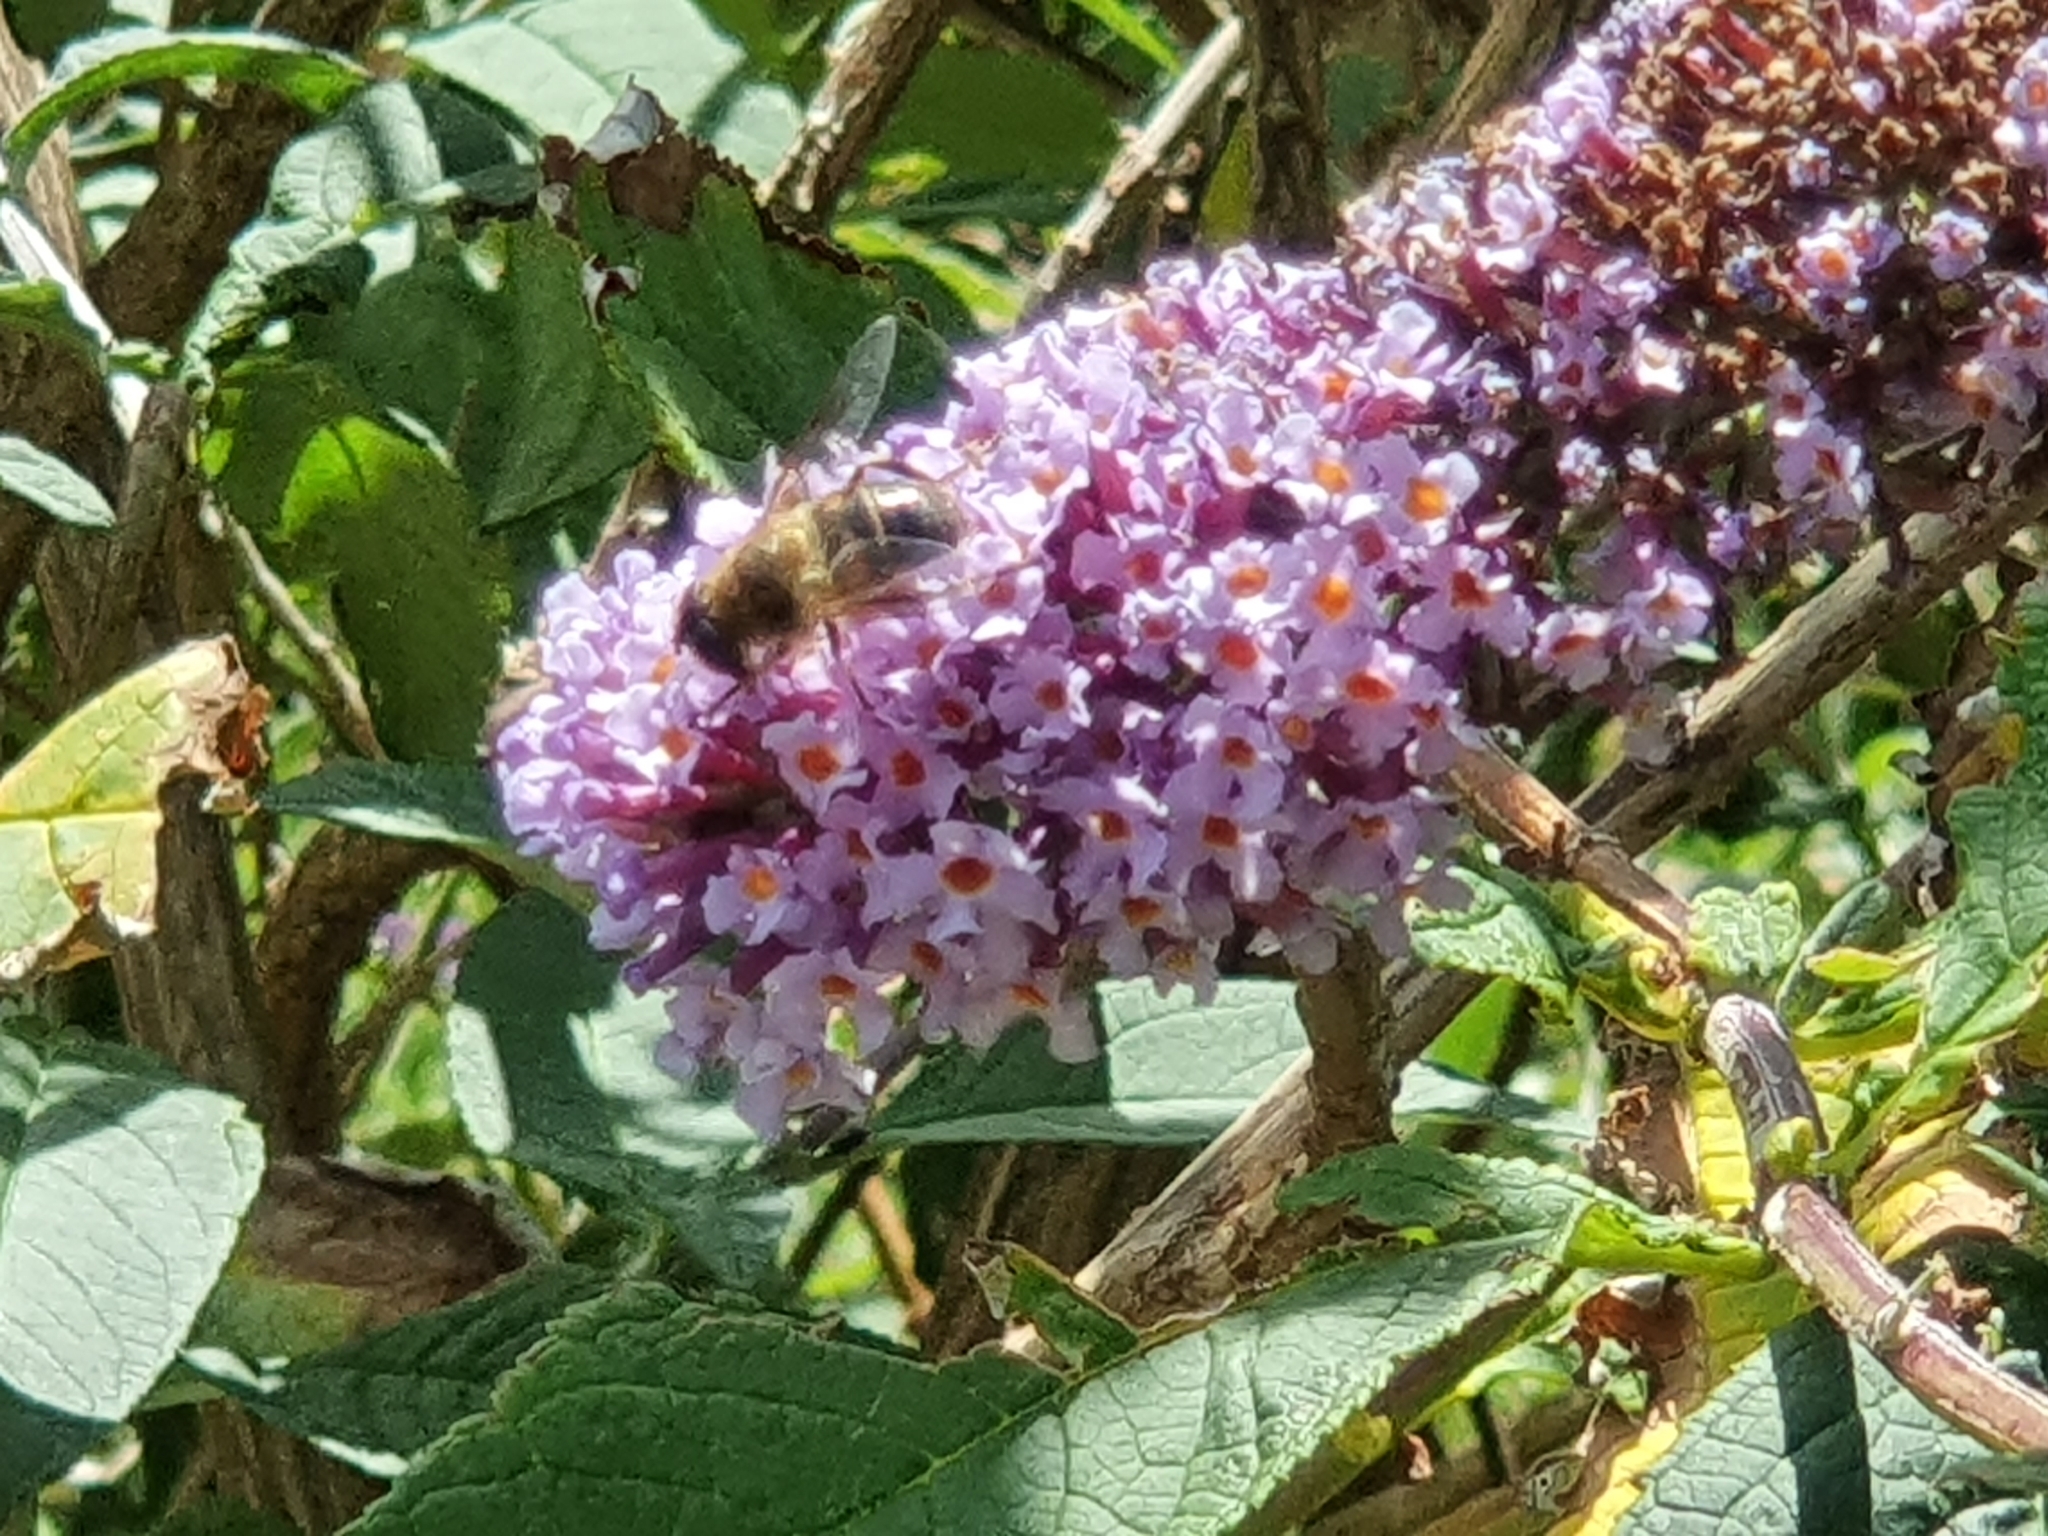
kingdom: Animalia
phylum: Arthropoda
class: Insecta
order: Diptera
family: Syrphidae
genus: Eristalis
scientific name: Eristalis tenax
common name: Drone fly
